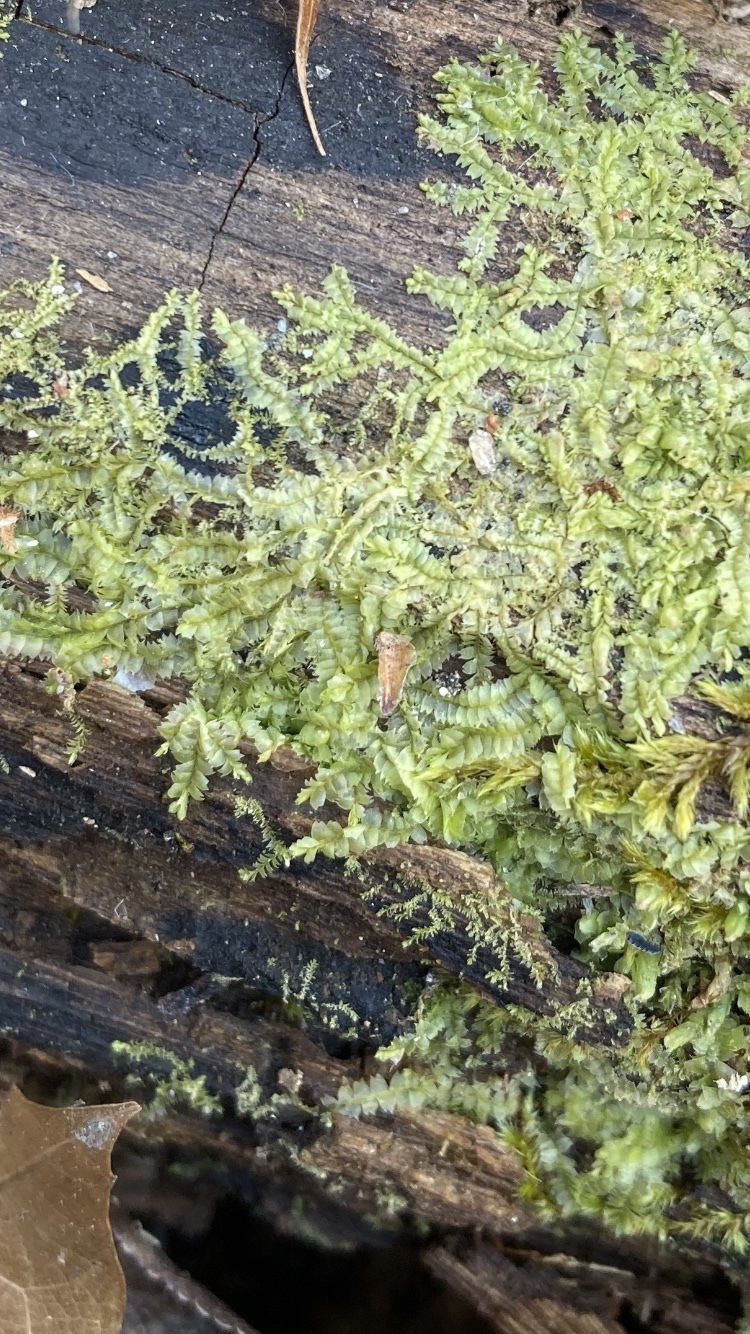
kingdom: Plantae
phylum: Marchantiophyta
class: Jungermanniopsida
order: Jungermanniales
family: Lophocoleaceae
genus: Lophocolea
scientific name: Lophocolea heterophylla
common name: Variable-leaved crestwort
